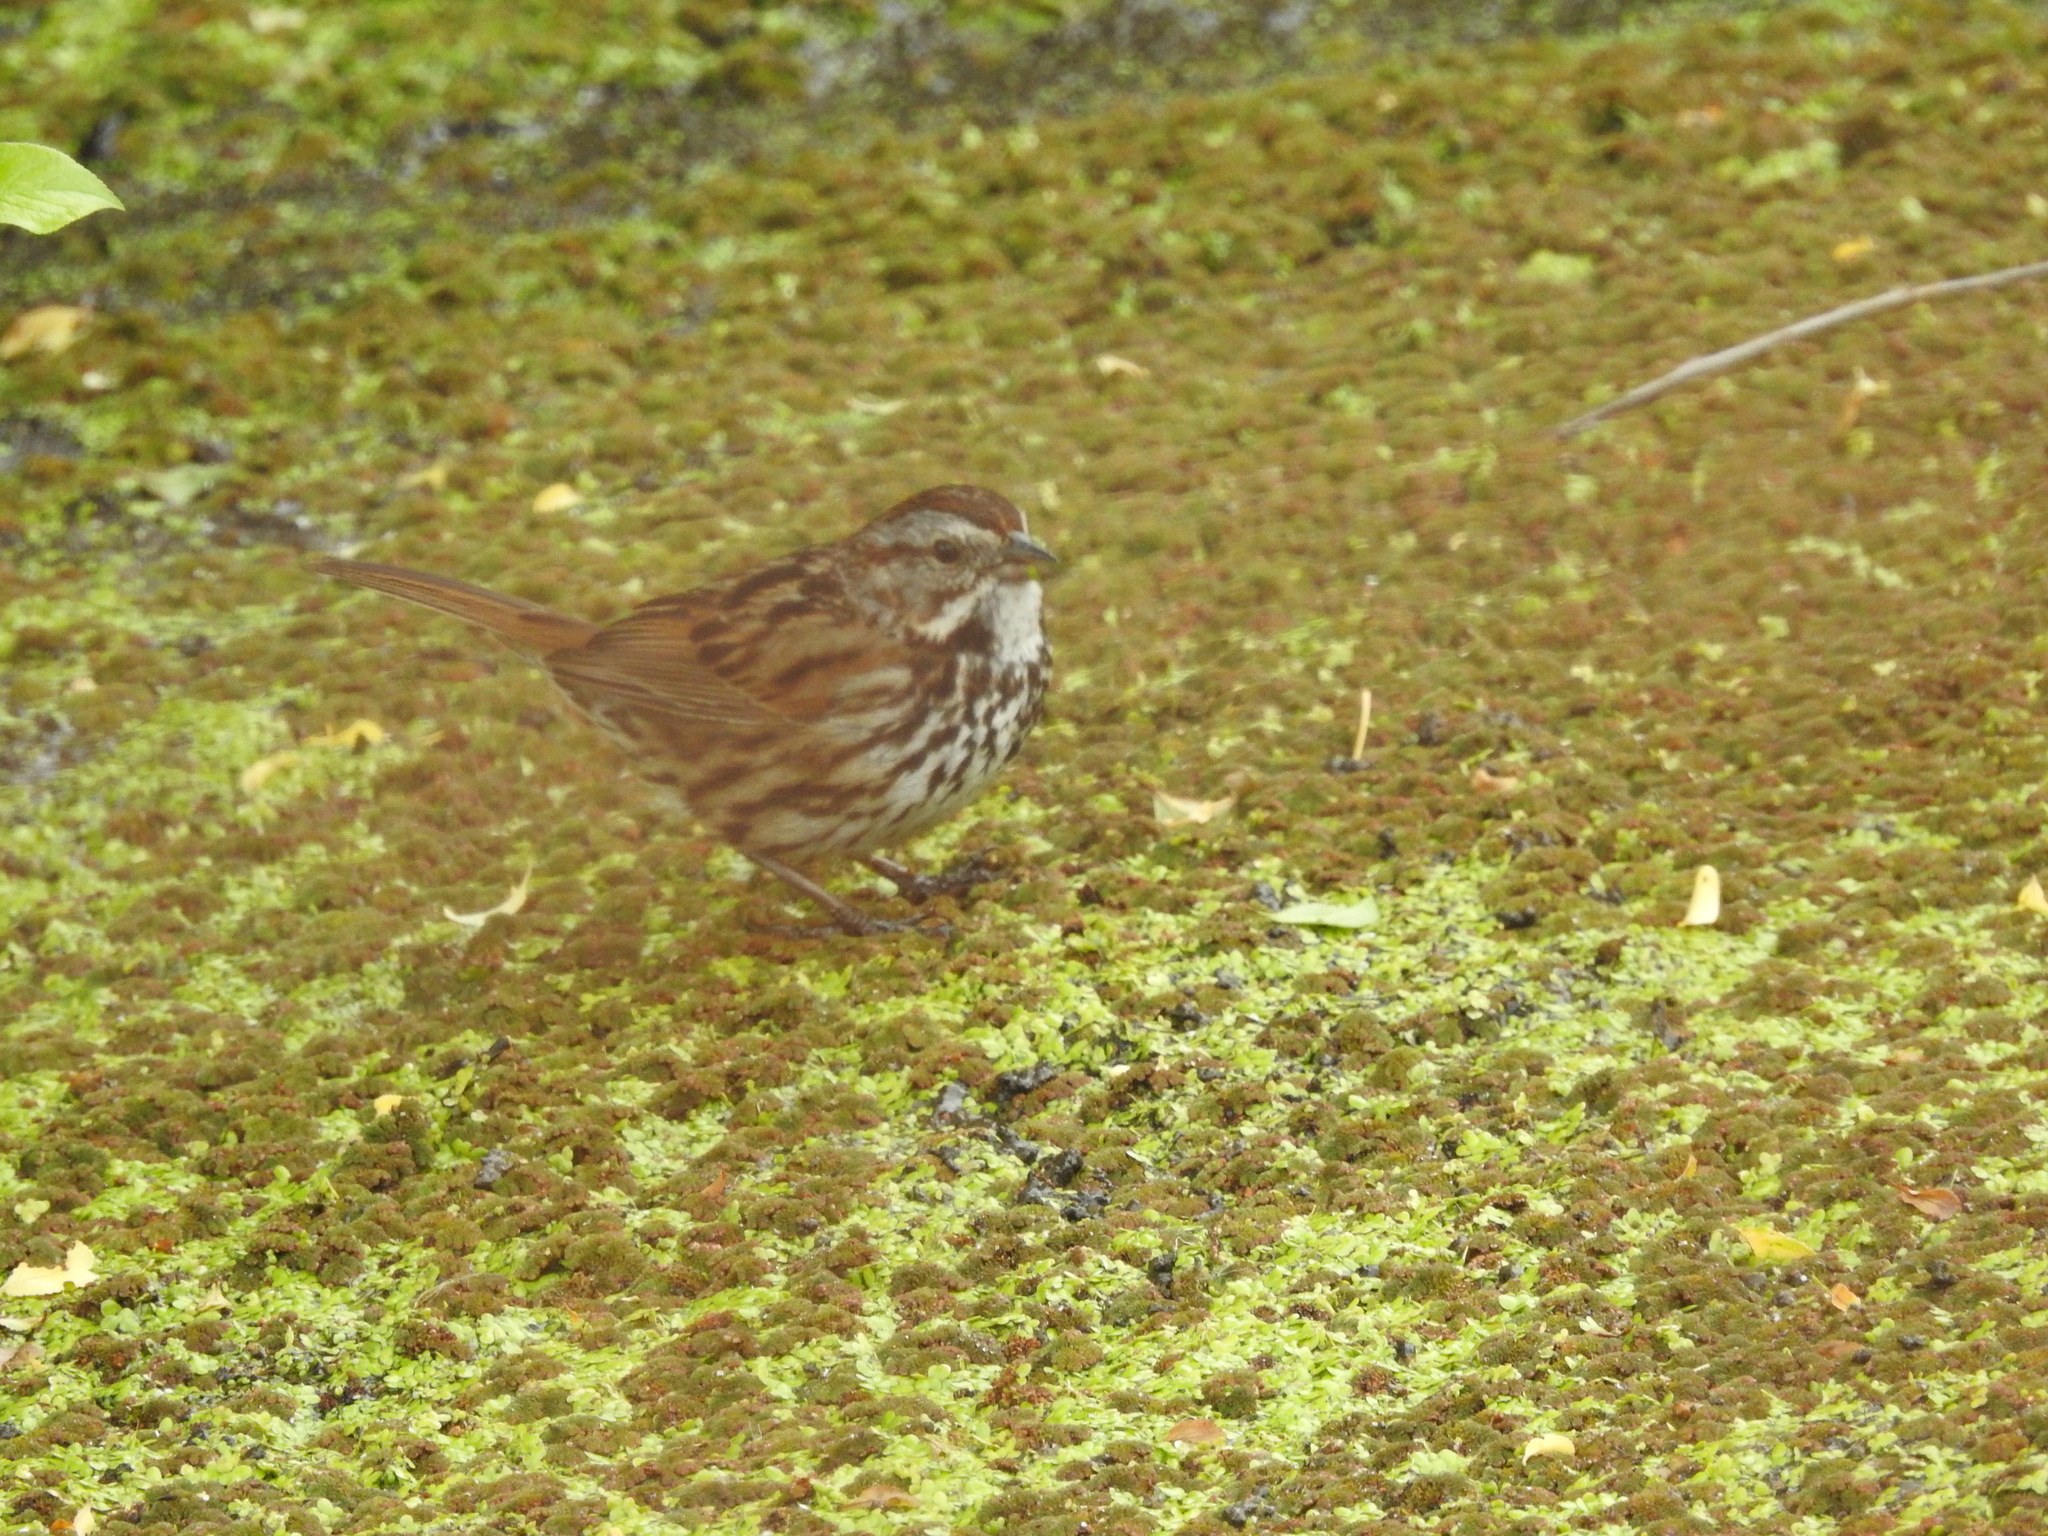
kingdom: Animalia
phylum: Chordata
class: Aves
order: Passeriformes
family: Passerellidae
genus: Melospiza
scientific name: Melospiza melodia
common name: Song sparrow
